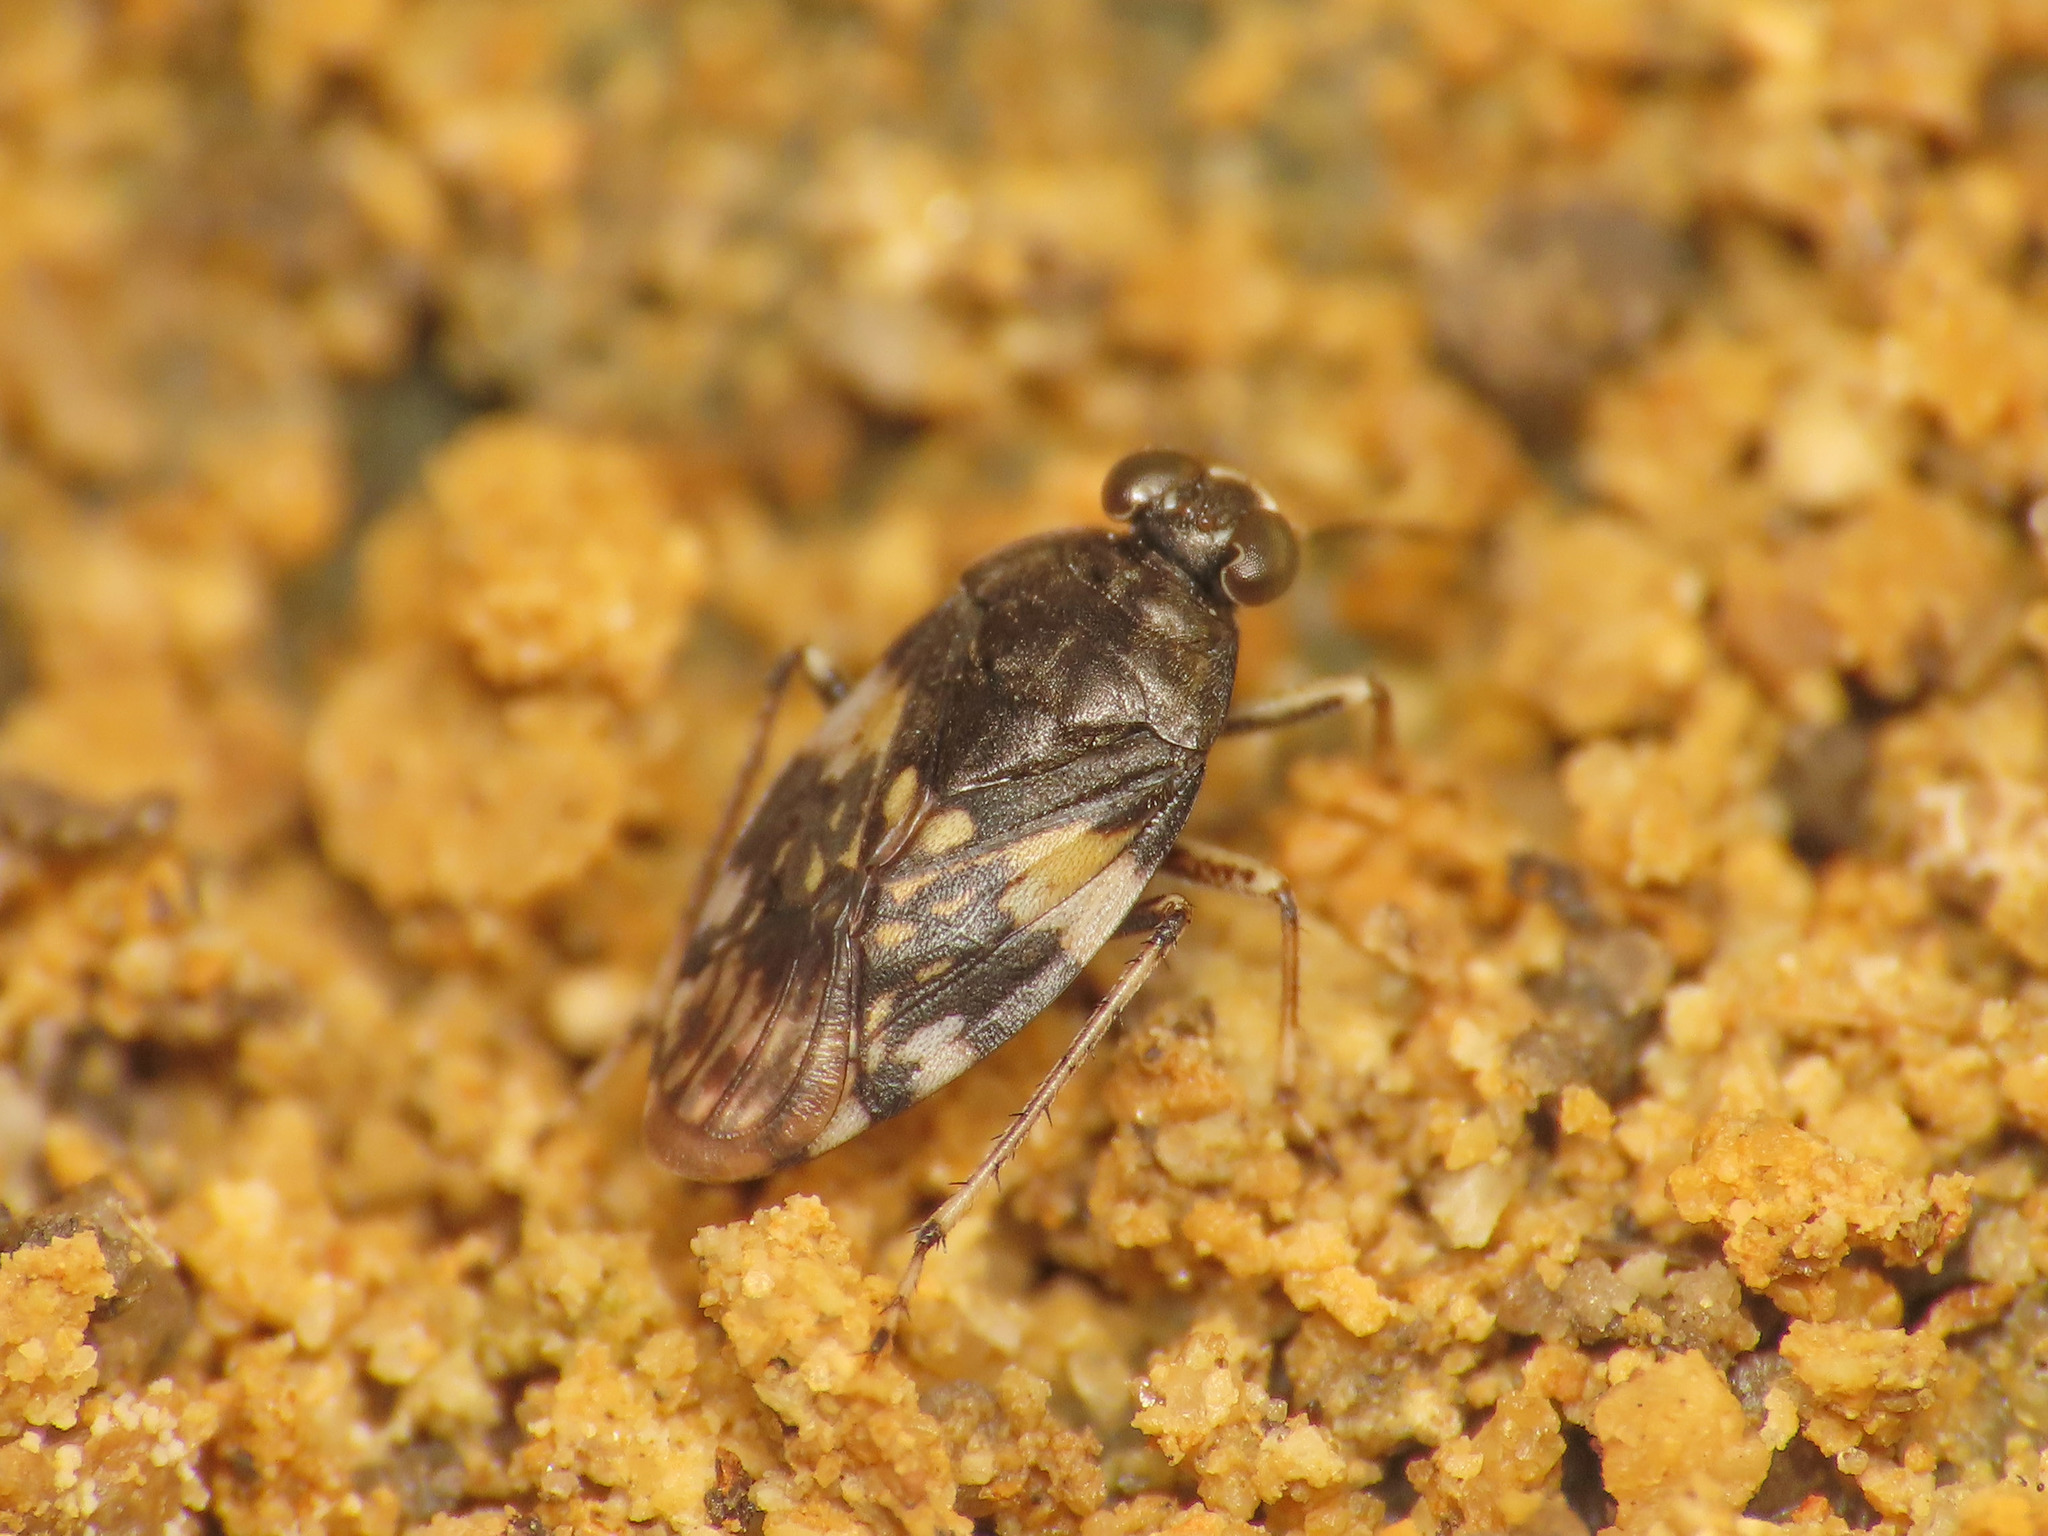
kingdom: Animalia
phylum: Arthropoda
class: Insecta
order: Hemiptera
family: Saldidae
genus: Saldula
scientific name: Saldula arenicola
